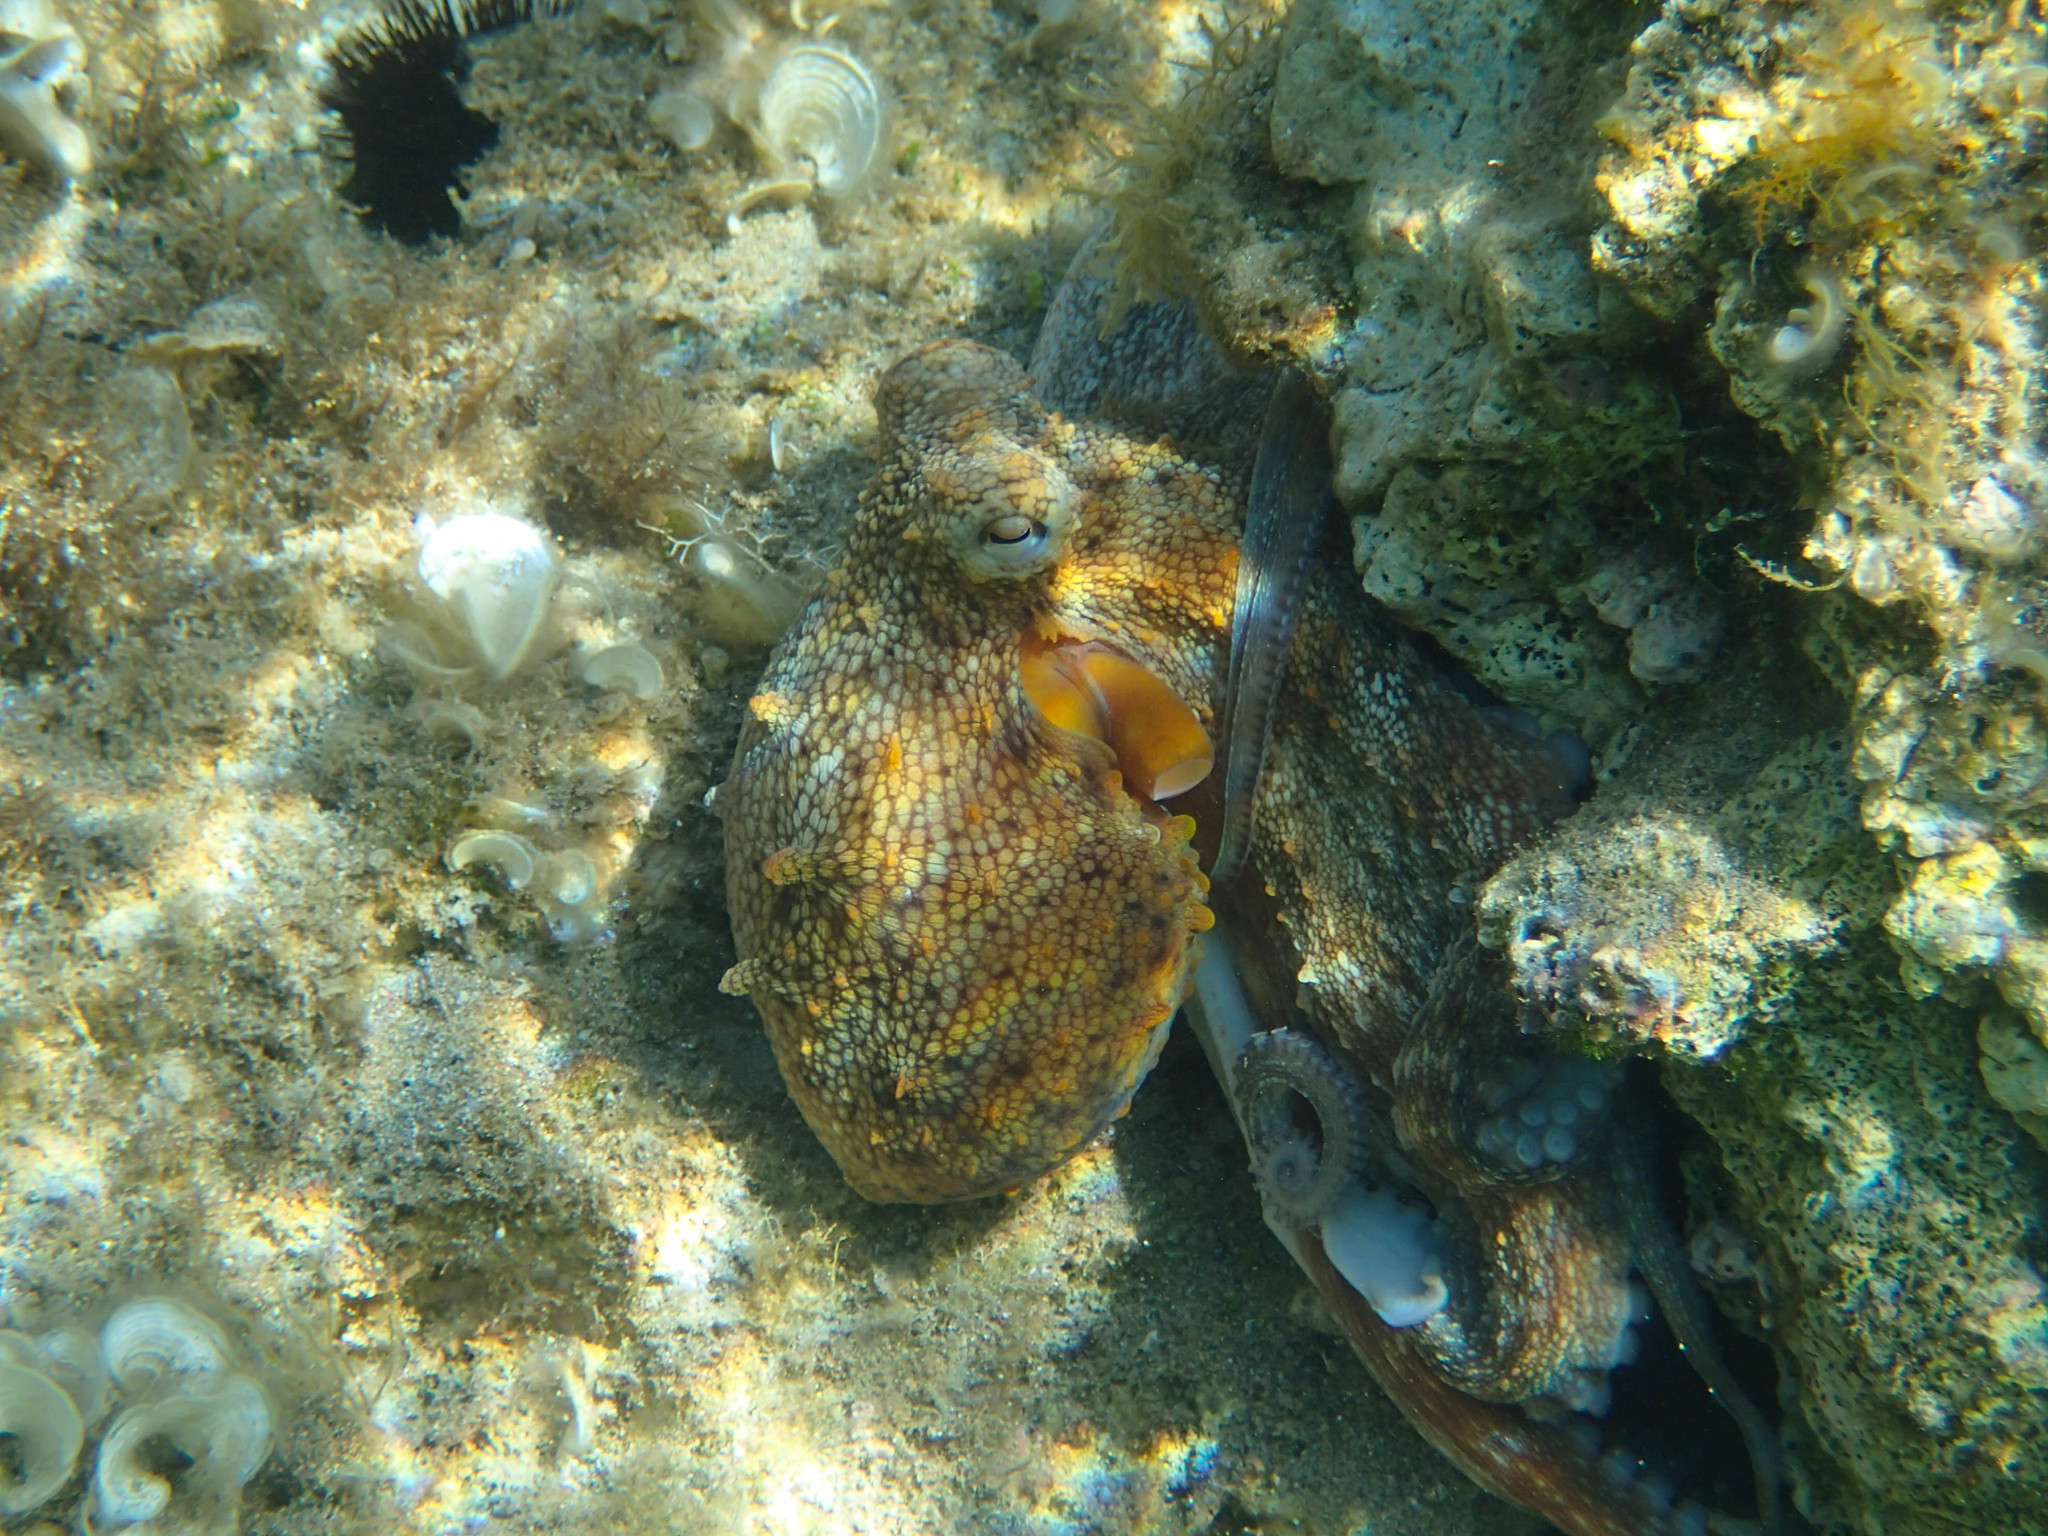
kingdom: Animalia
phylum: Mollusca
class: Cephalopoda
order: Octopoda
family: Octopodidae
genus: Octopus
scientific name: Octopus vulgaris
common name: Common octopus
